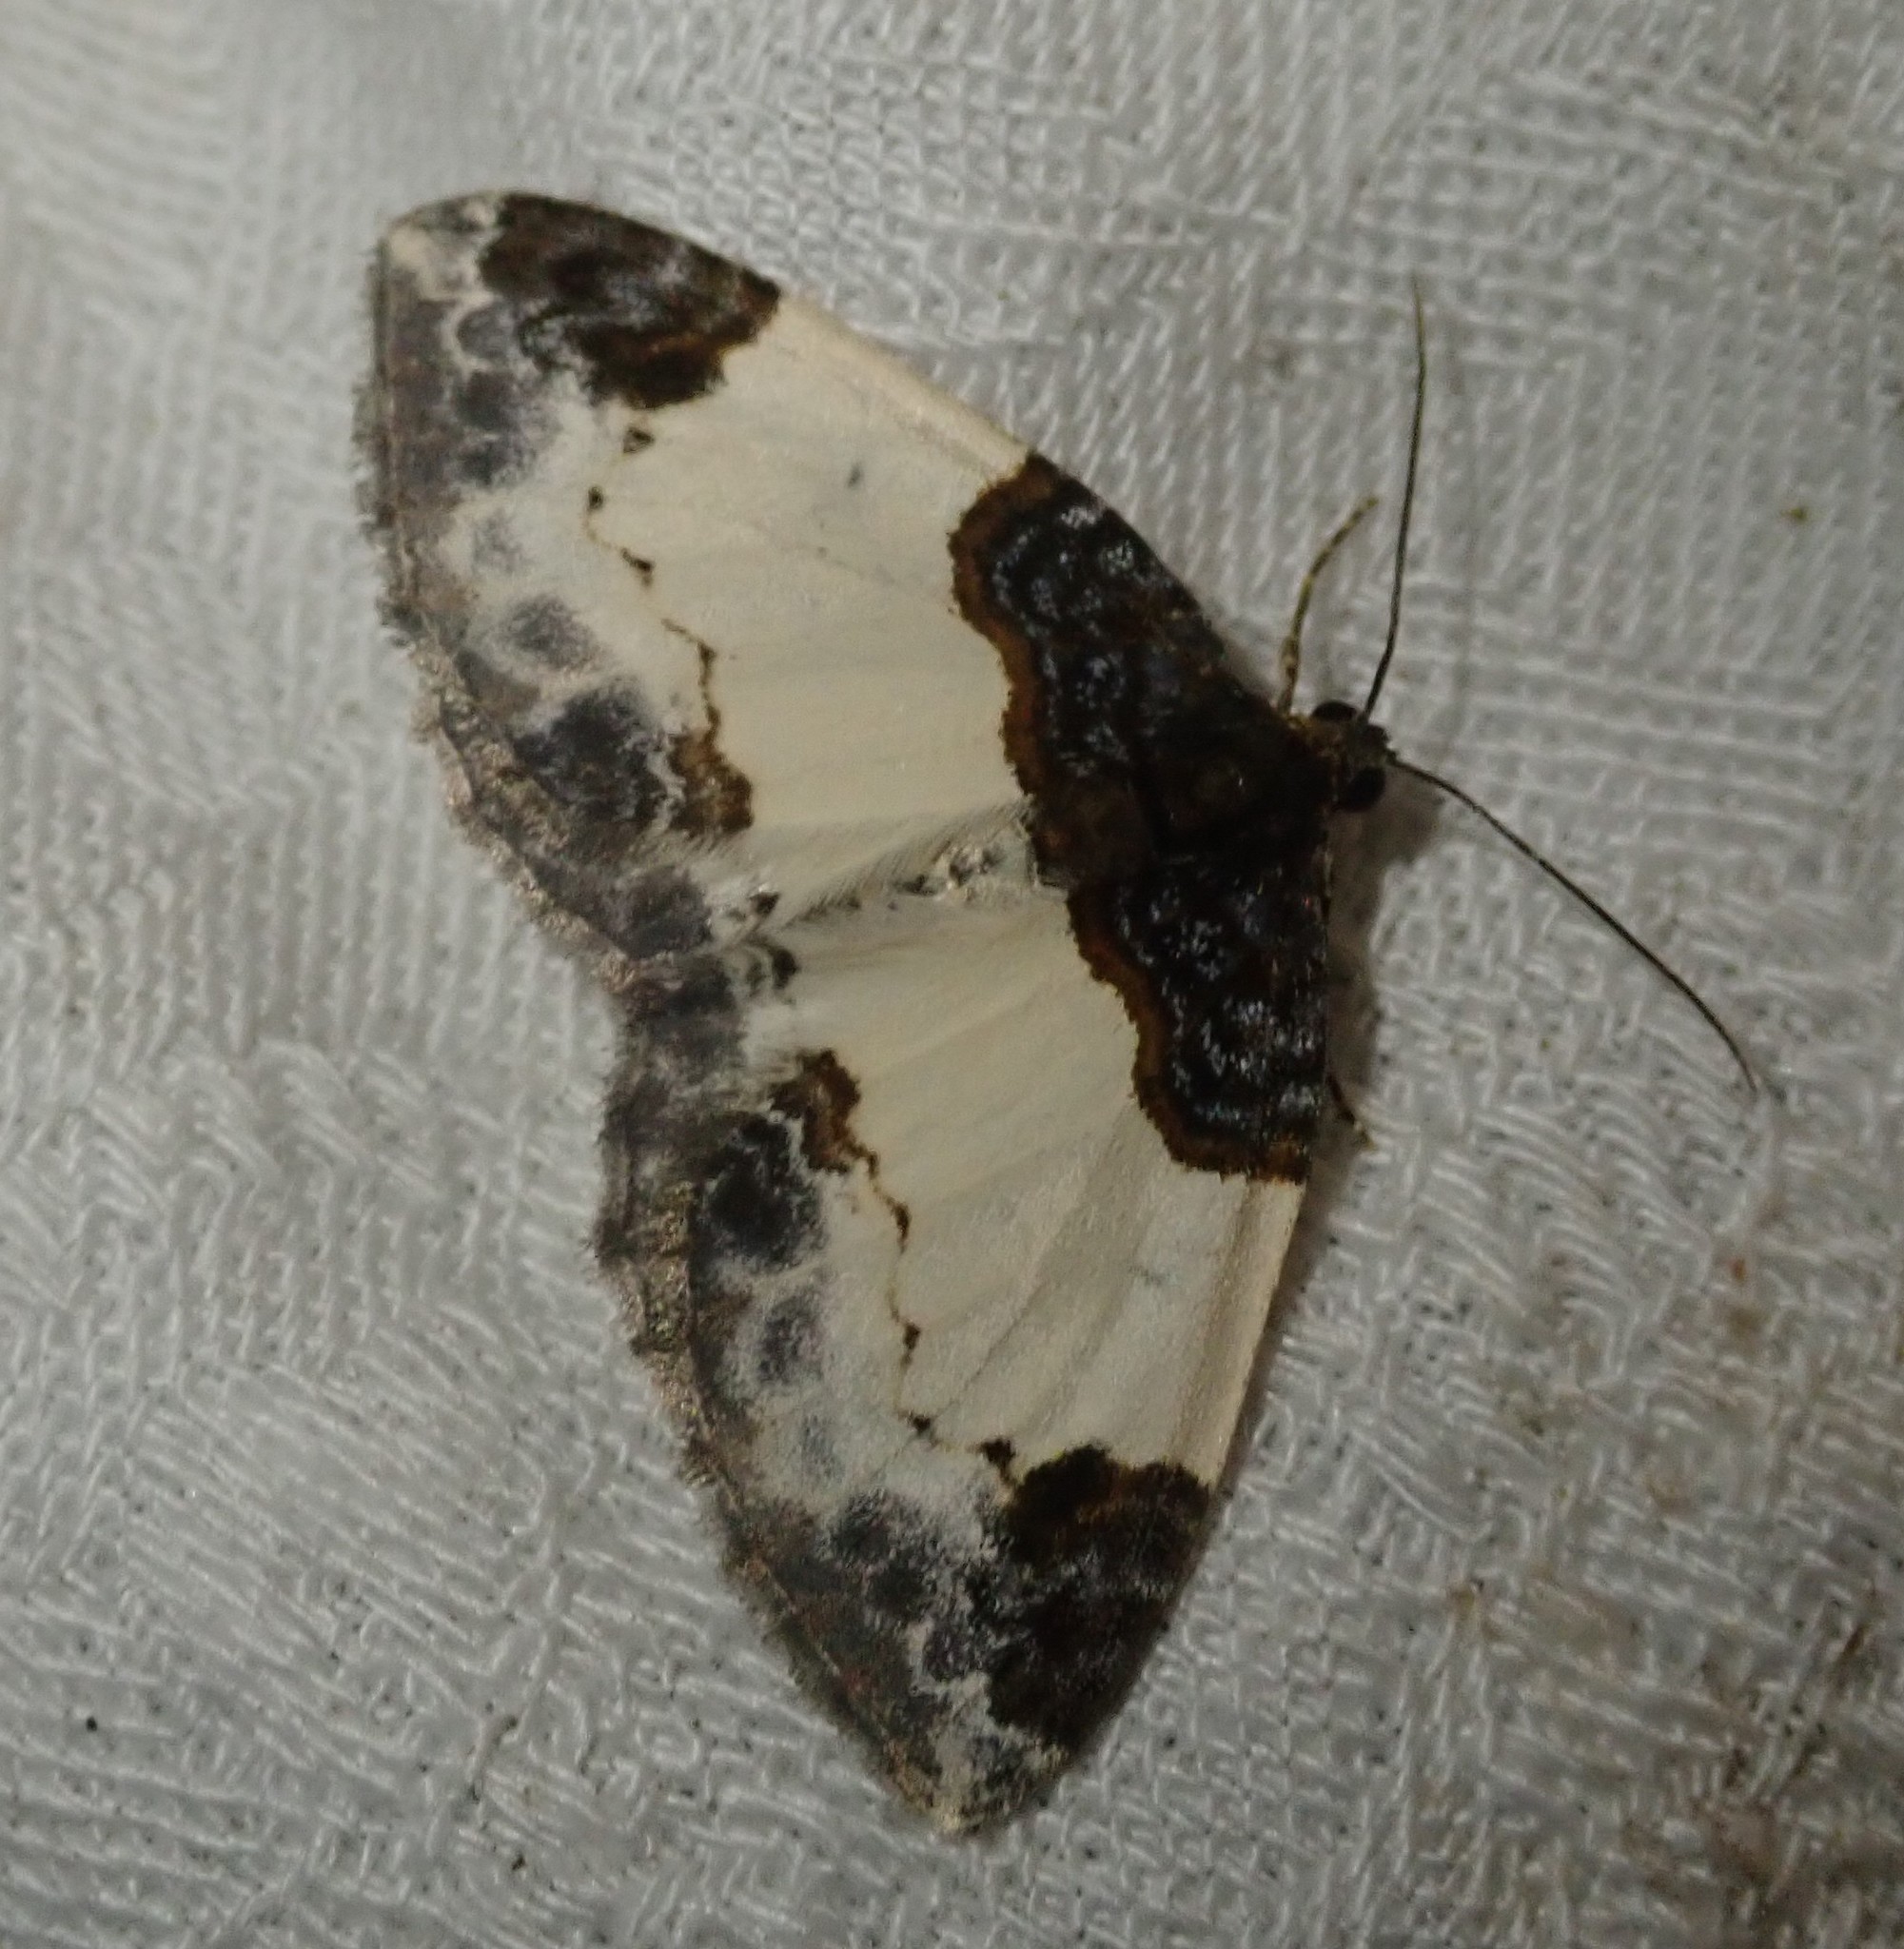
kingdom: Animalia
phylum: Arthropoda
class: Insecta
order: Lepidoptera
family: Geometridae
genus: Mesoleuca
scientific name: Mesoleuca albicillata
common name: Beautiful carpet
